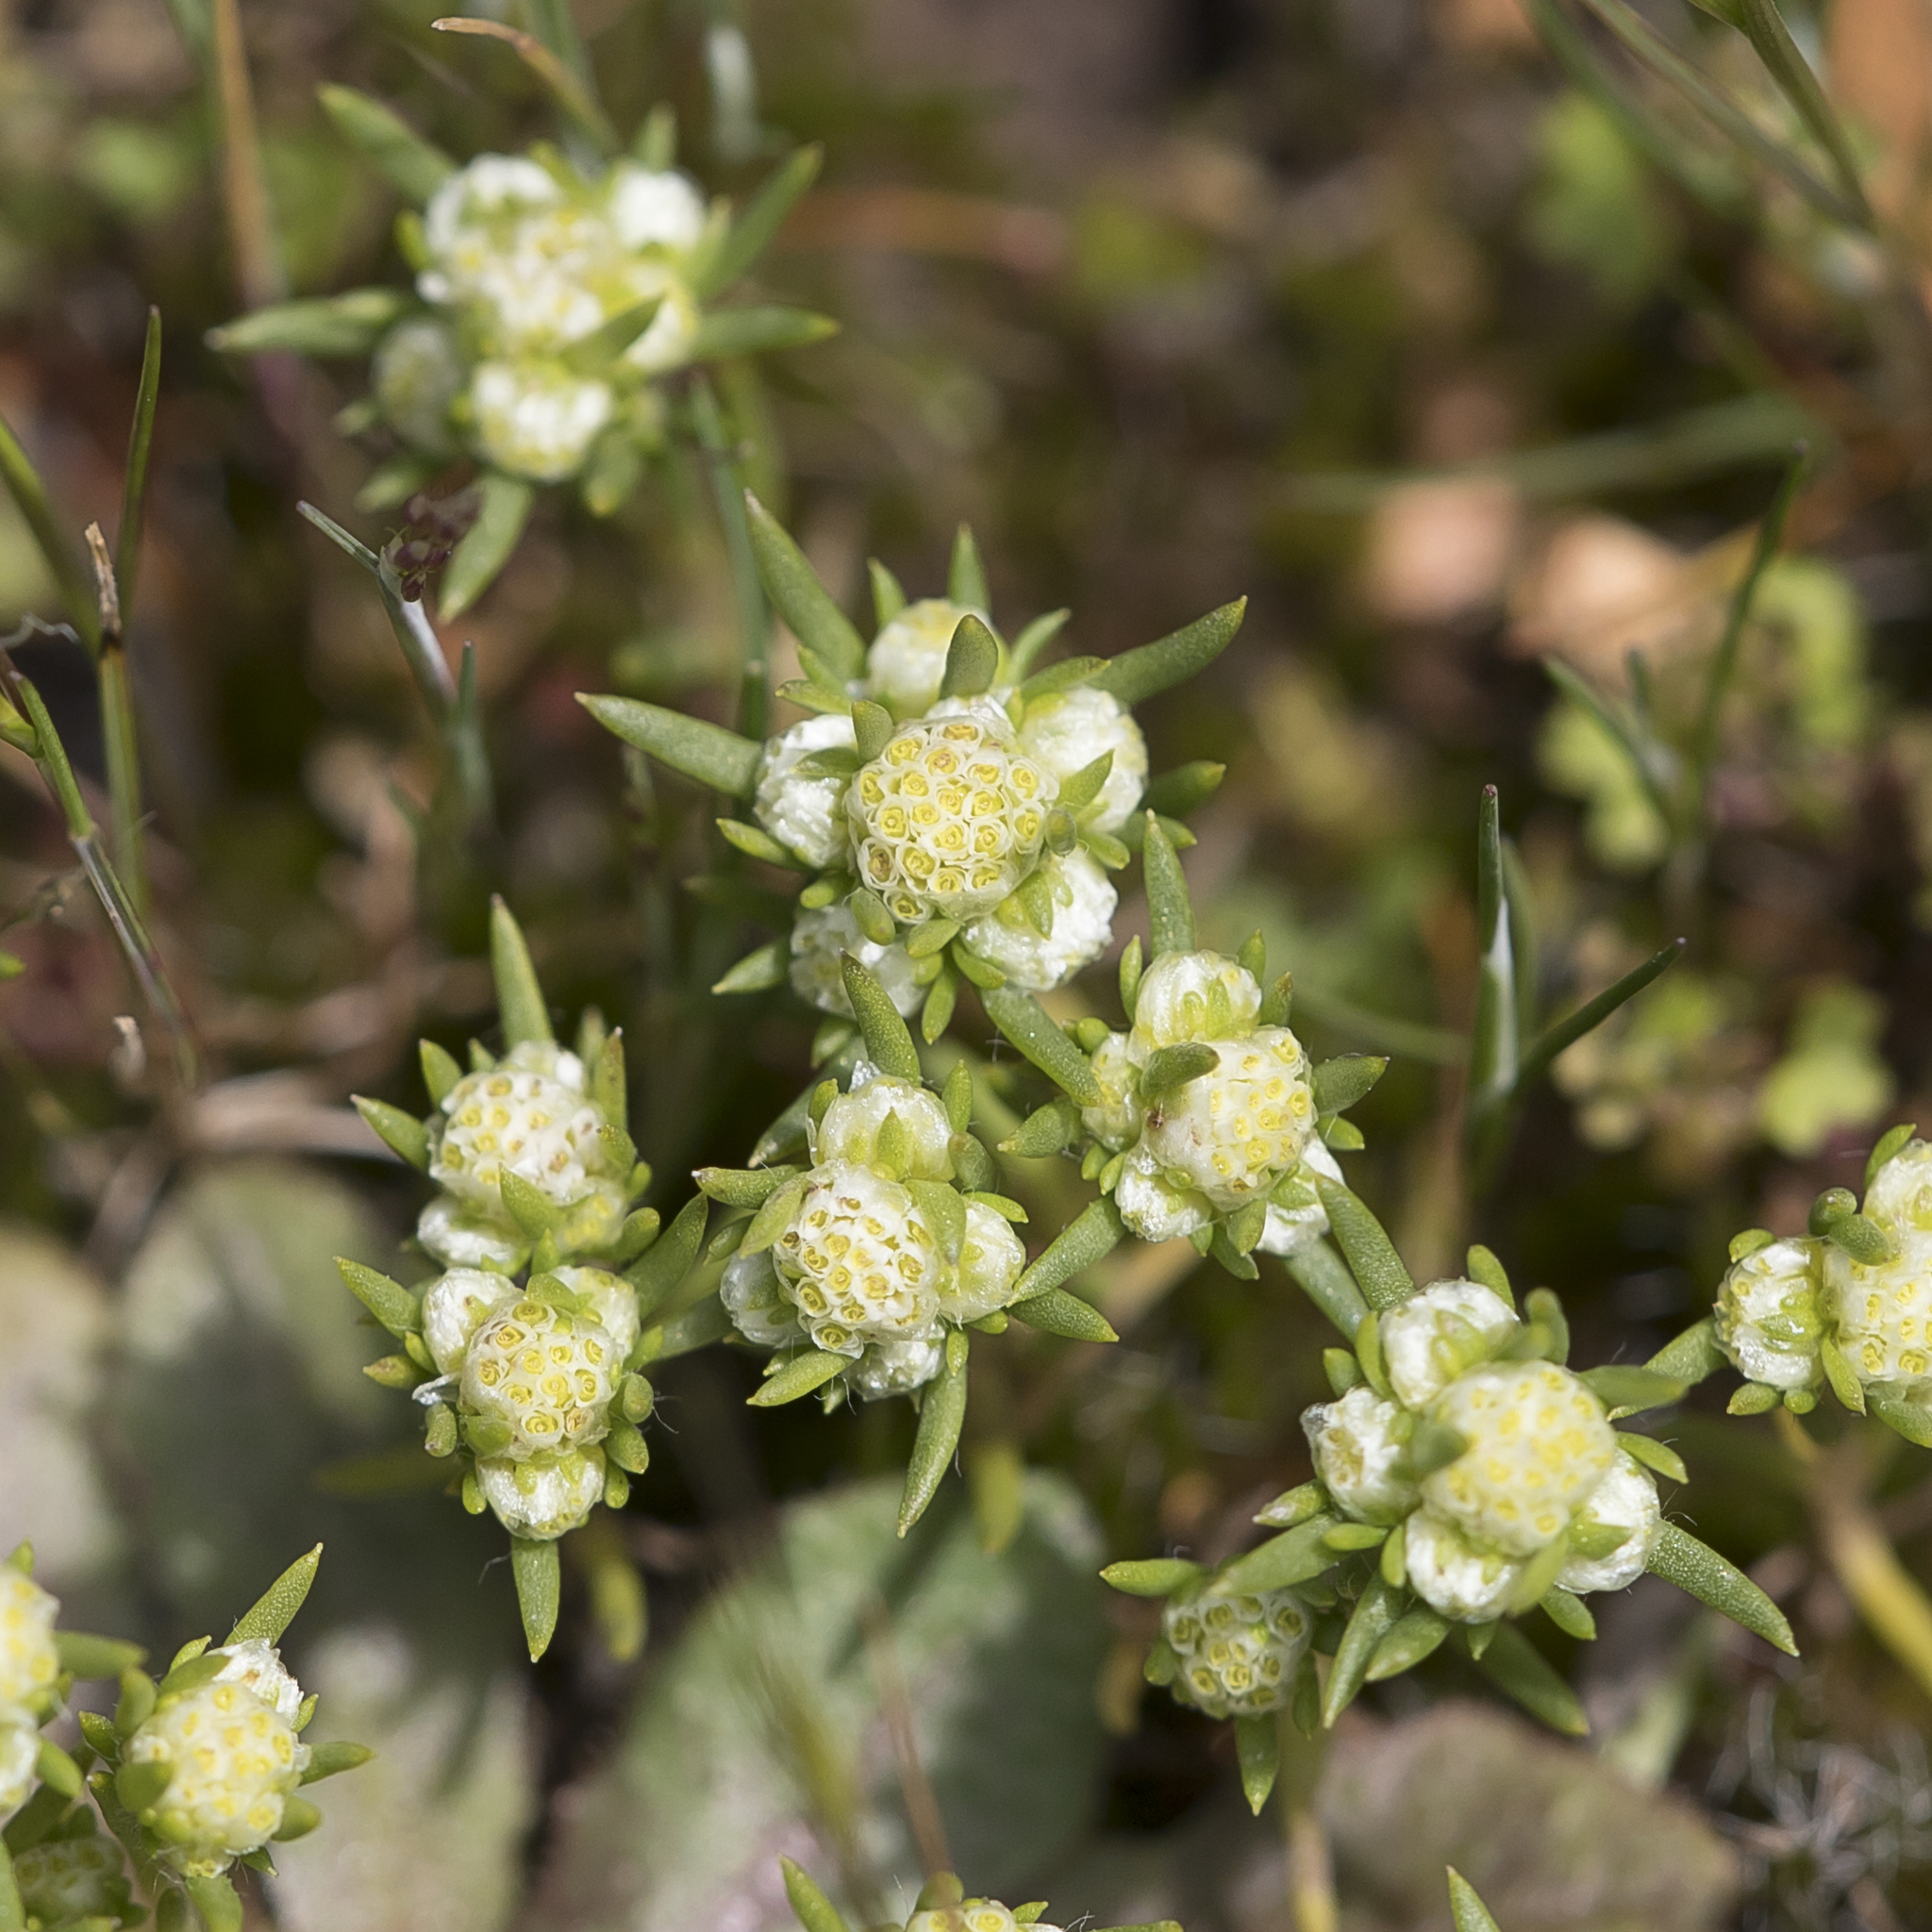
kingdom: Plantae
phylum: Tracheophyta
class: Magnoliopsida
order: Asterales
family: Asteraceae
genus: Siloxerus
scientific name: Siloxerus multiflorus
